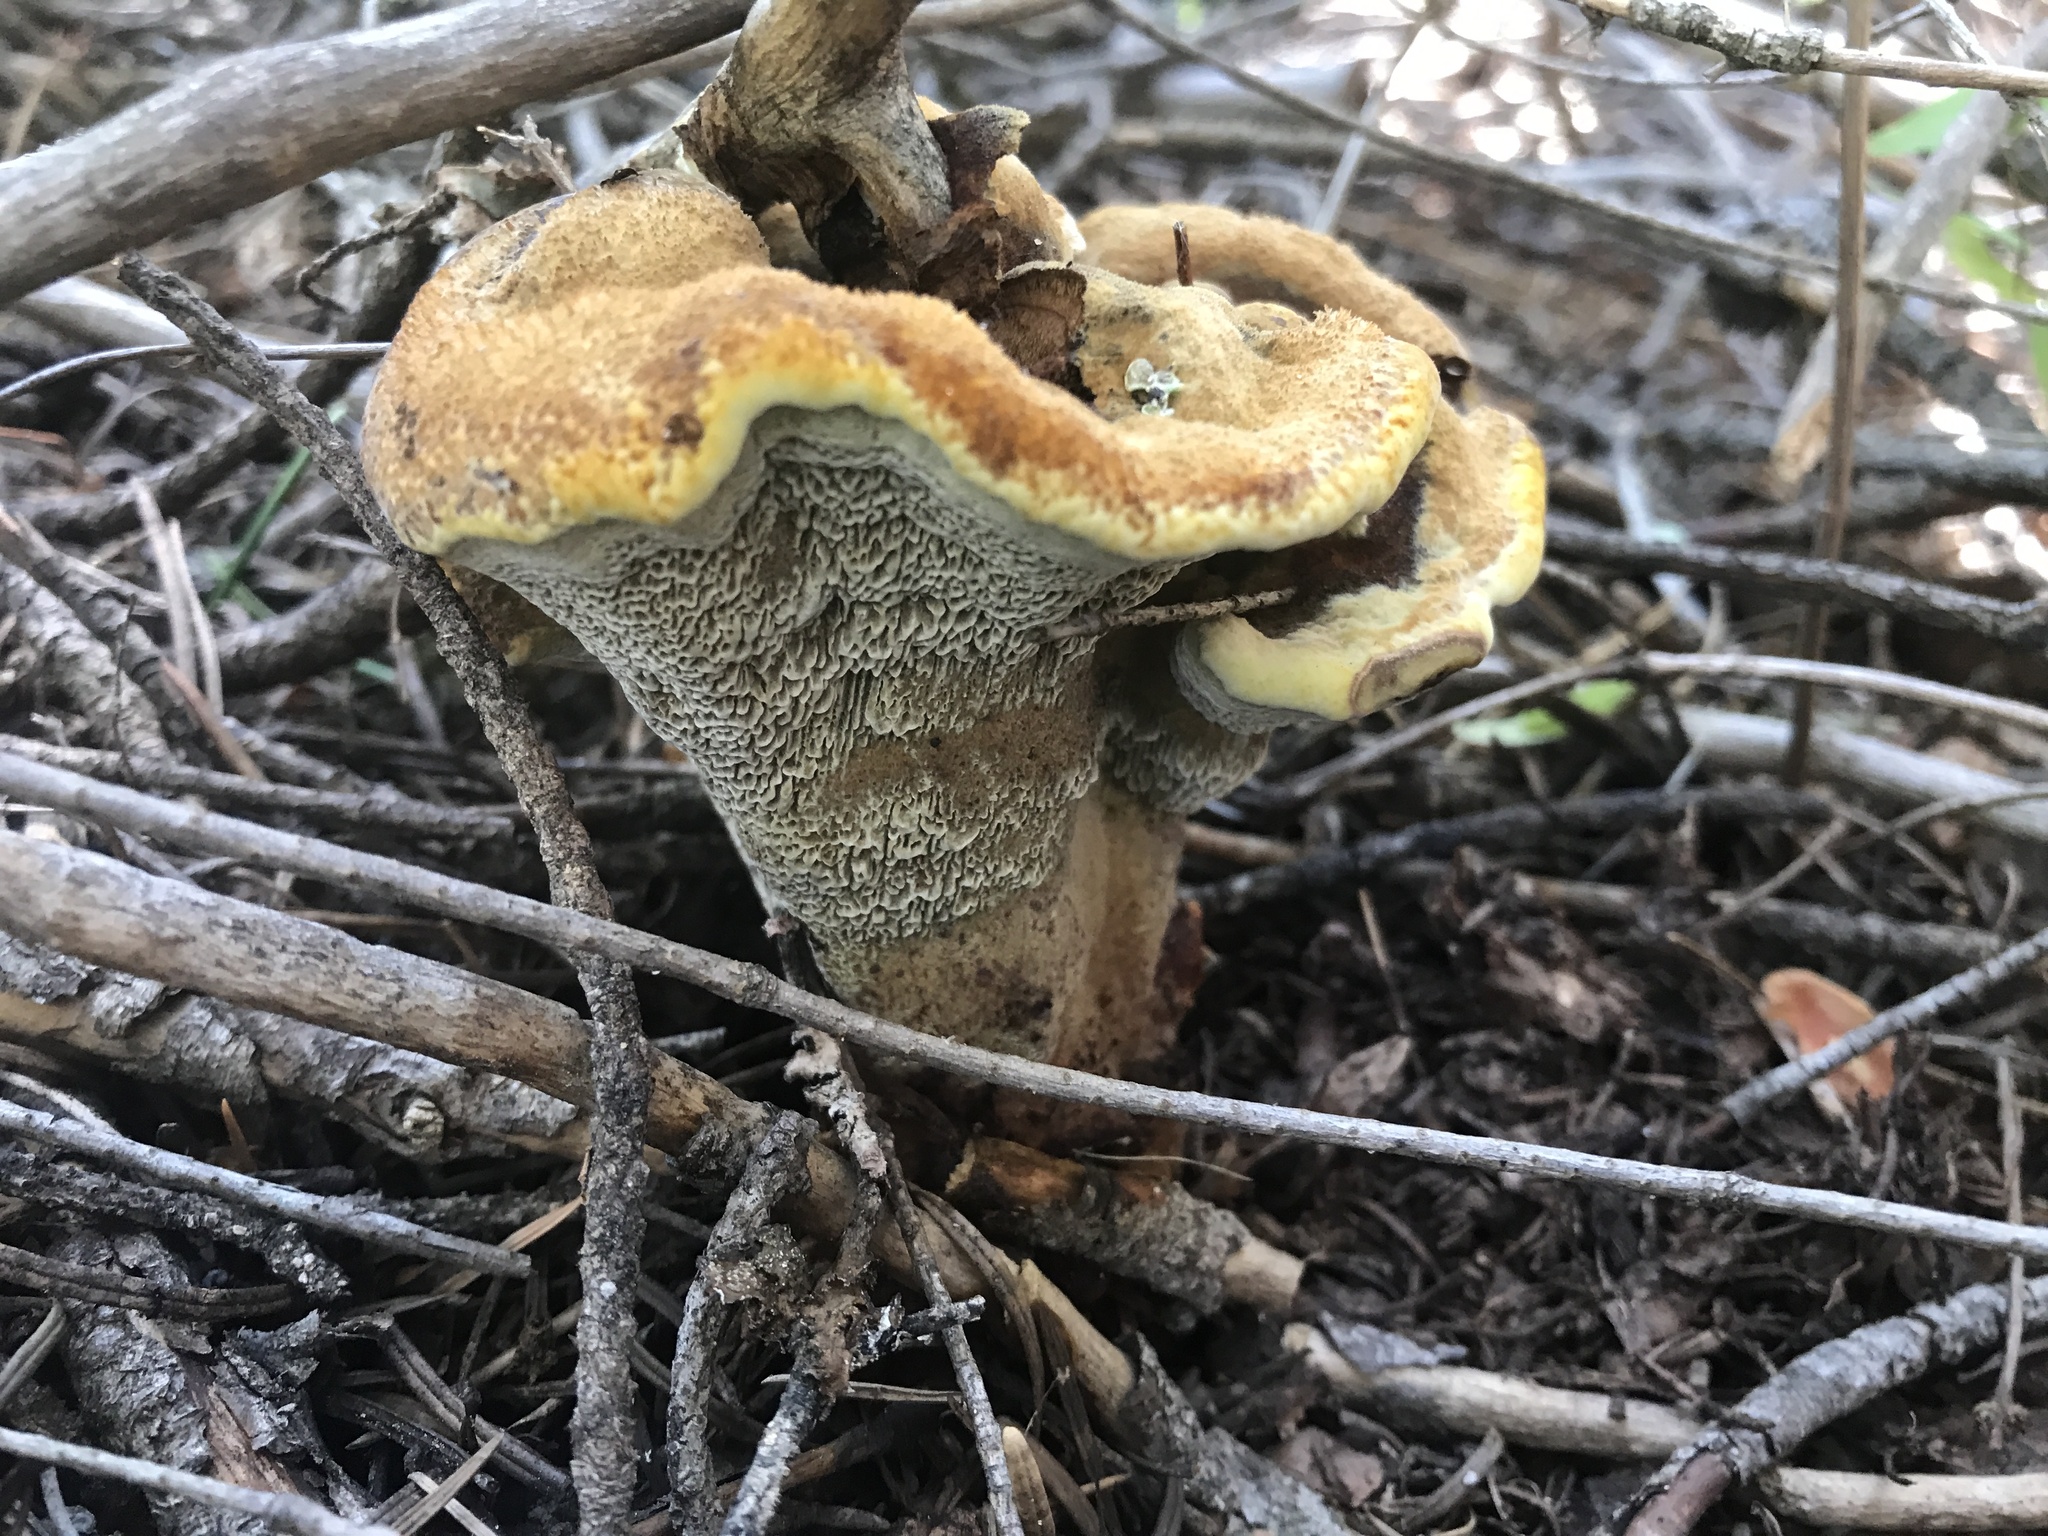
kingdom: Fungi
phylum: Basidiomycota
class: Agaricomycetes
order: Polyporales
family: Laetiporaceae
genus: Phaeolus
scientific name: Phaeolus schweinitzii
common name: Dyer's mazegill
